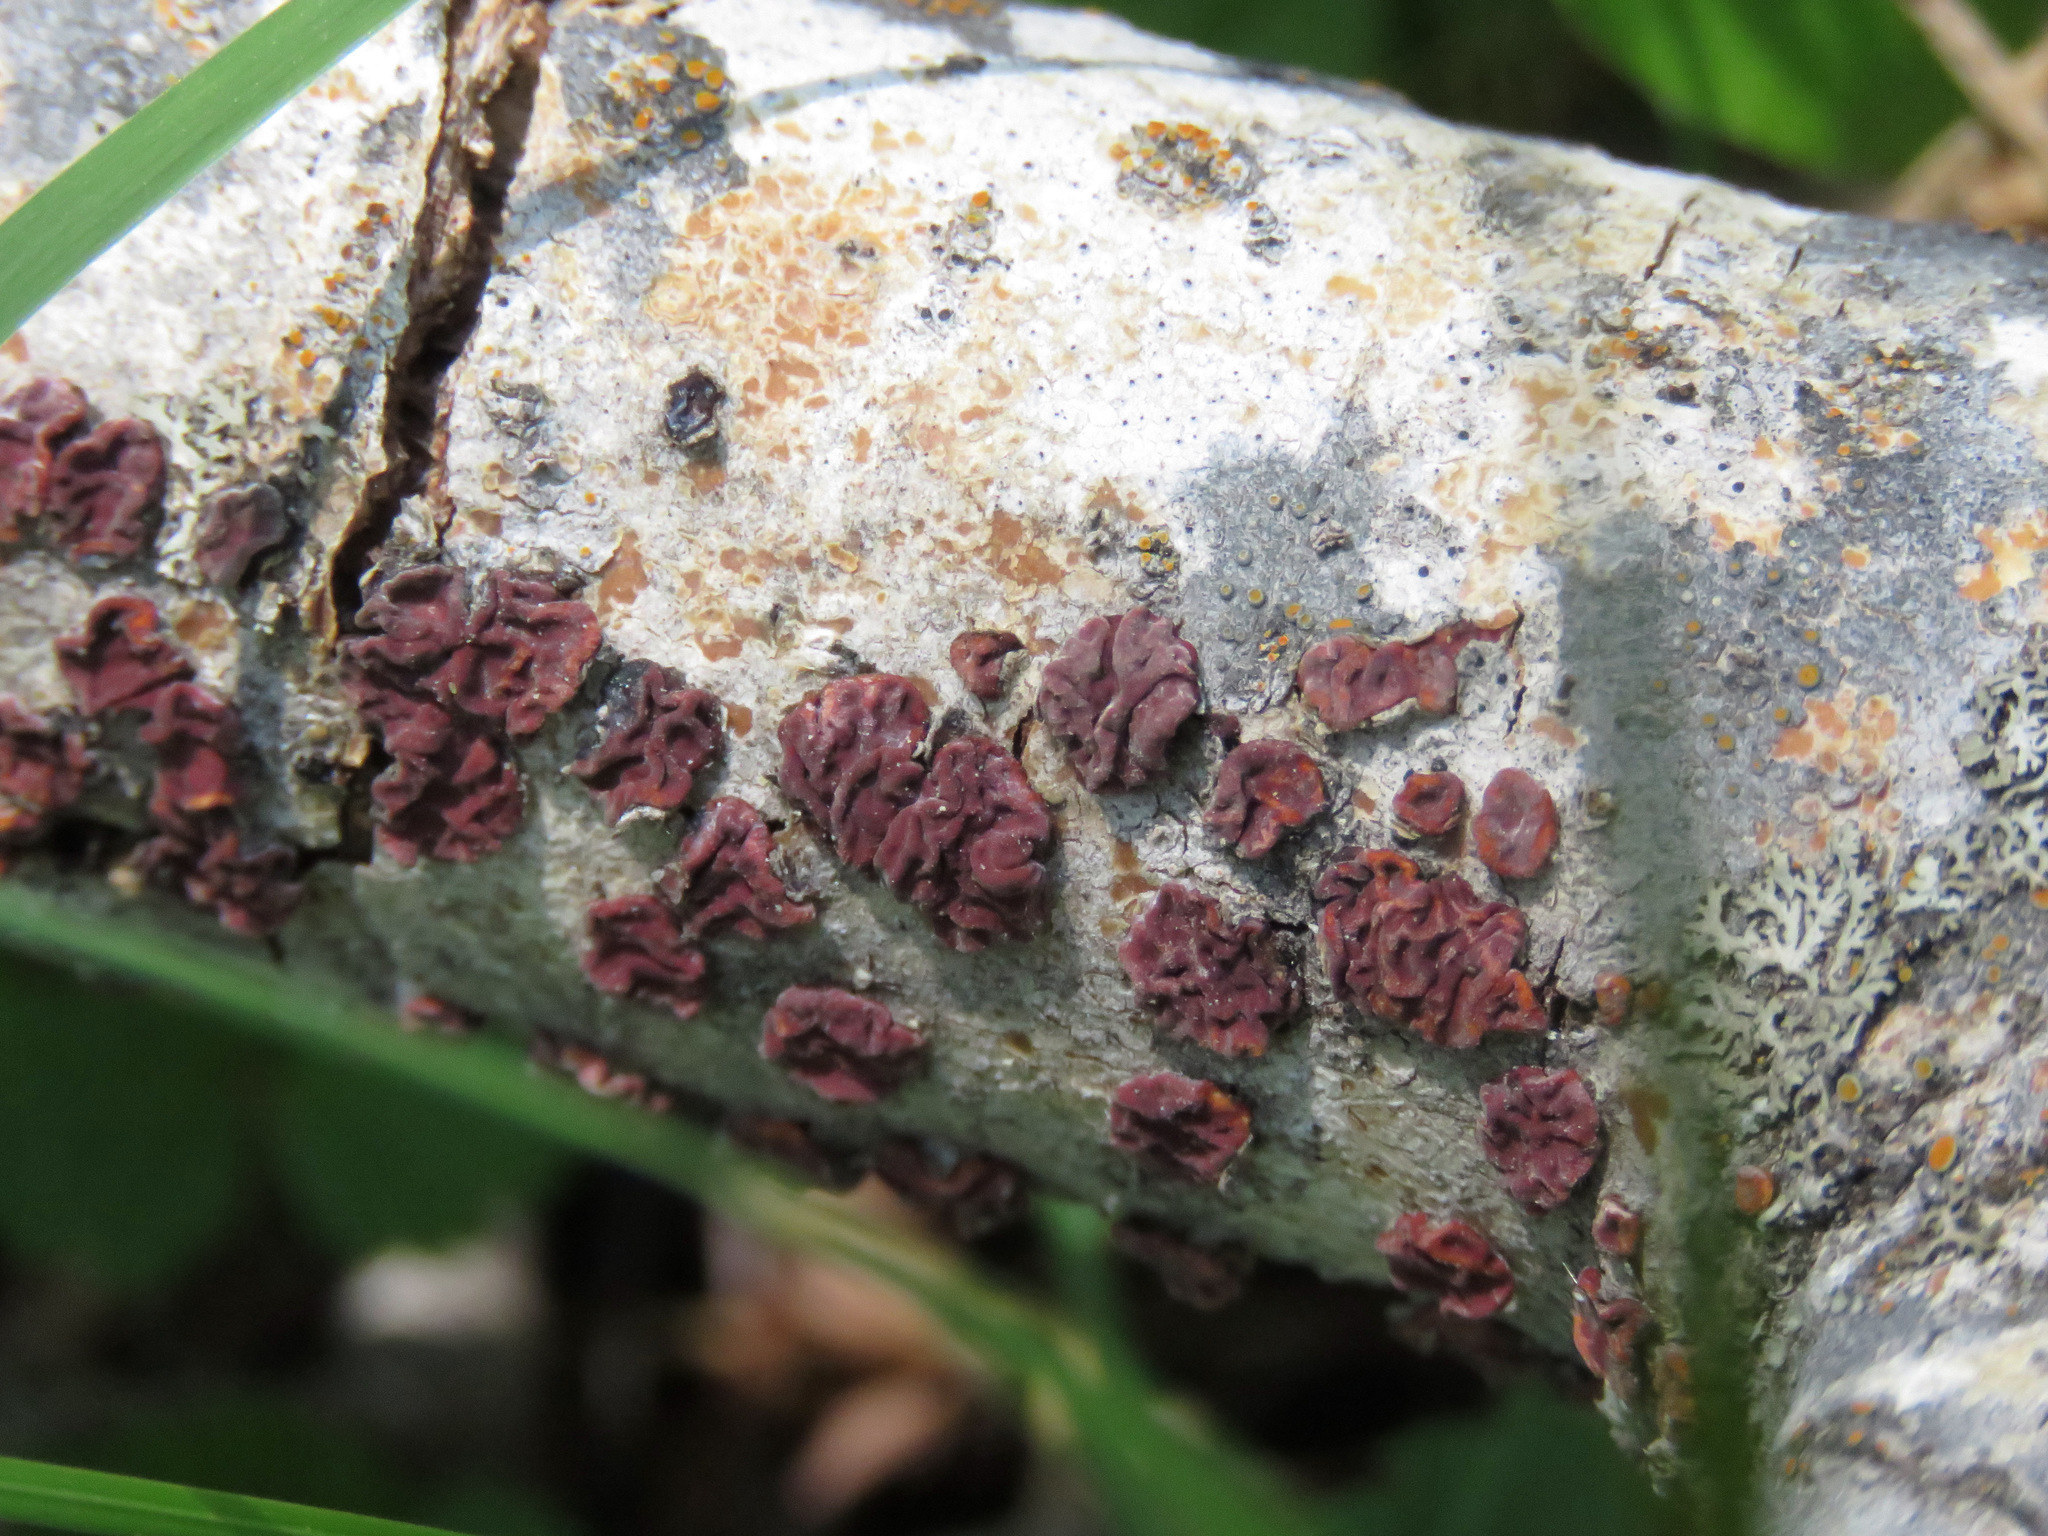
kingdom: Fungi
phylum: Basidiomycota
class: Agaricomycetes
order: Russulales
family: Peniophoraceae
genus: Peniophora
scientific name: Peniophora rufa
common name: Red tree brain fungus
